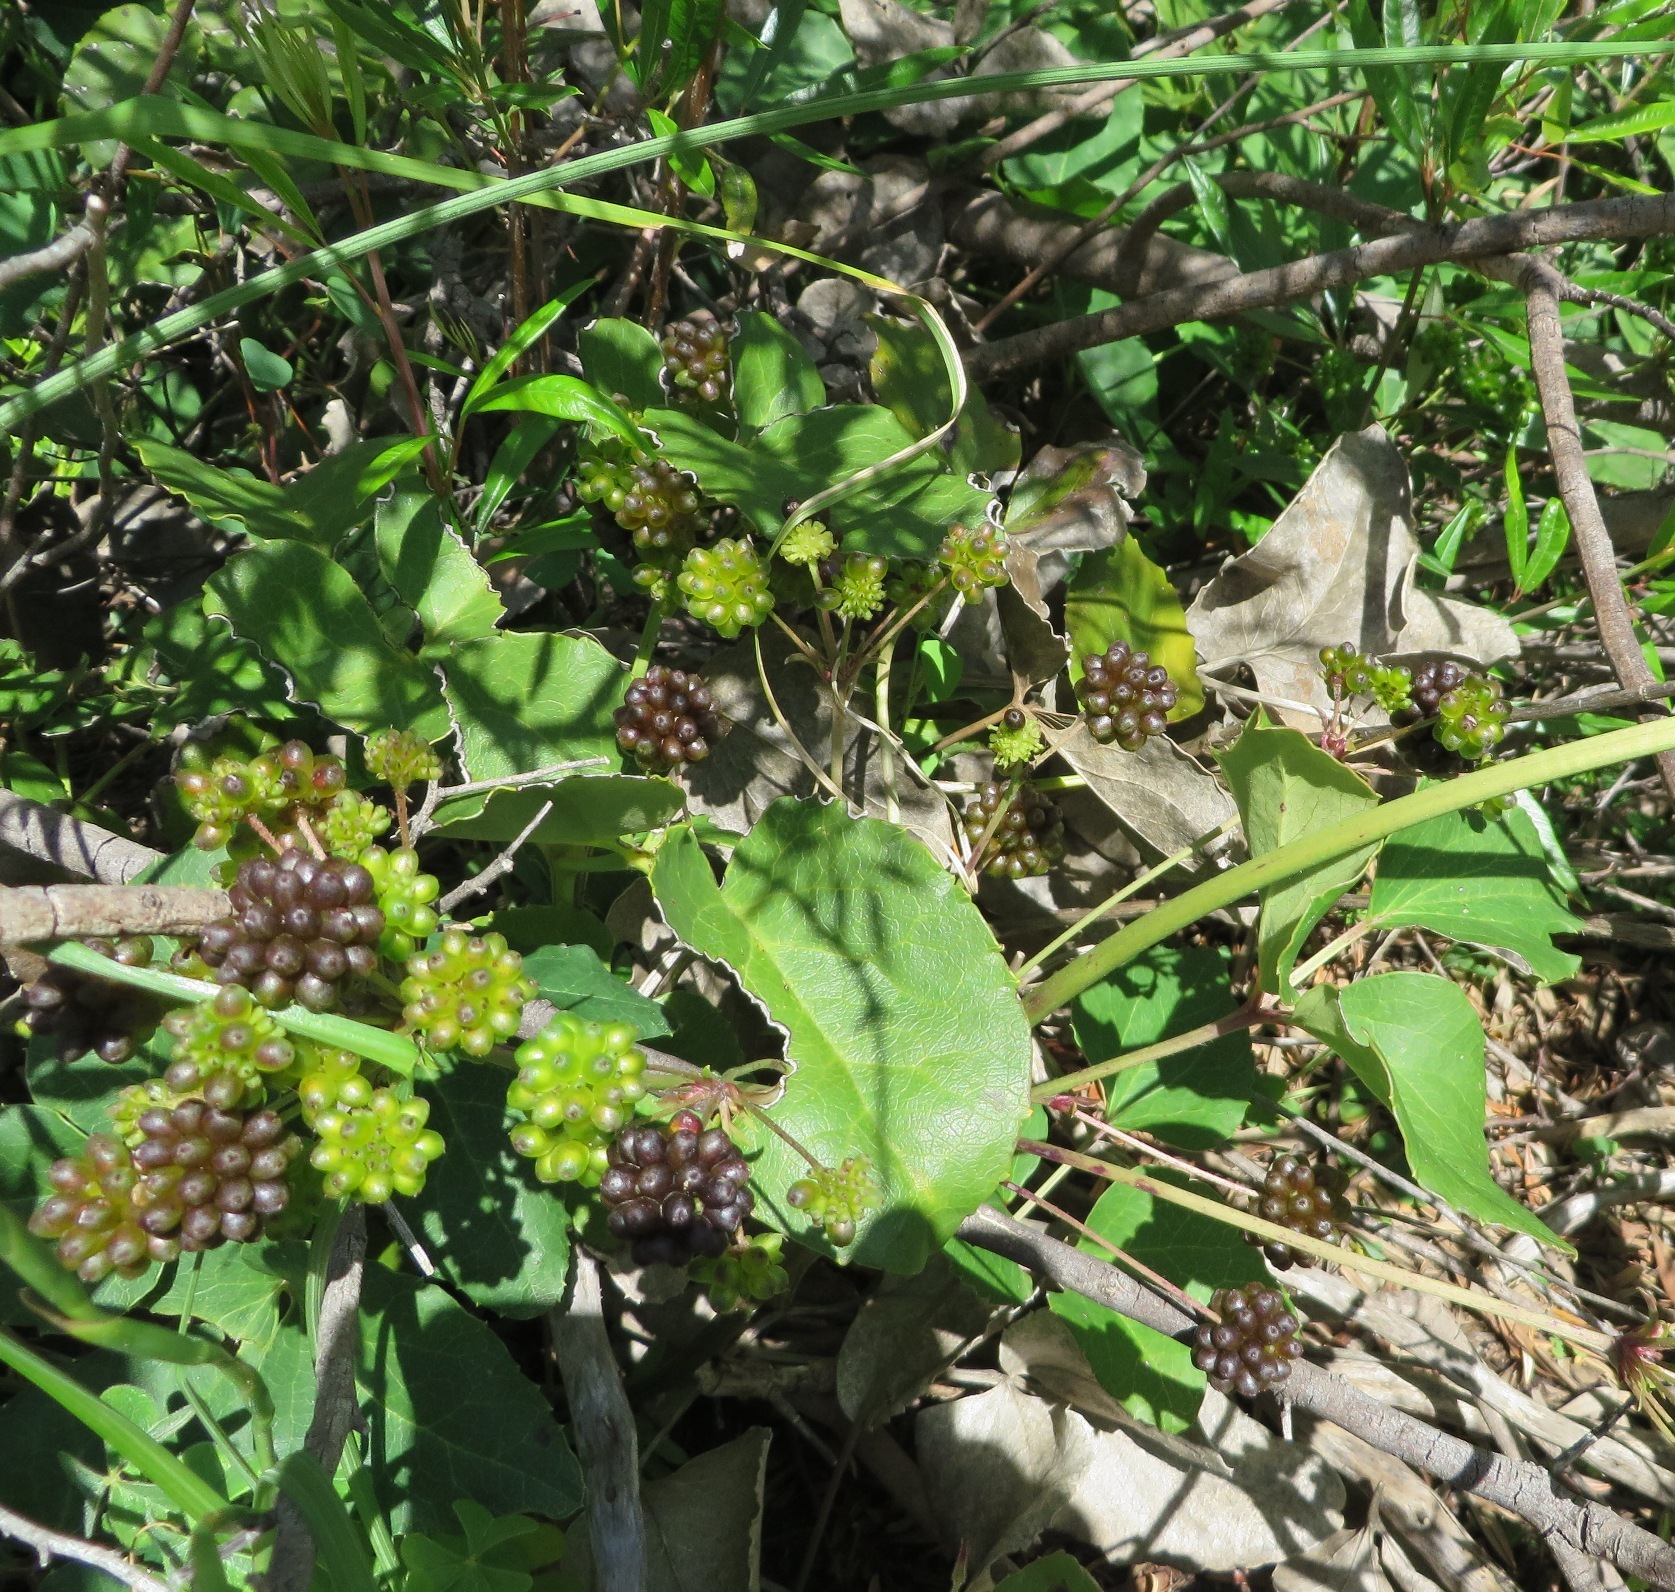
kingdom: Plantae
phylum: Tracheophyta
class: Magnoliopsida
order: Ranunculales
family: Ranunculaceae
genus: Knowltonia
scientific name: Knowltonia vesicatoria
